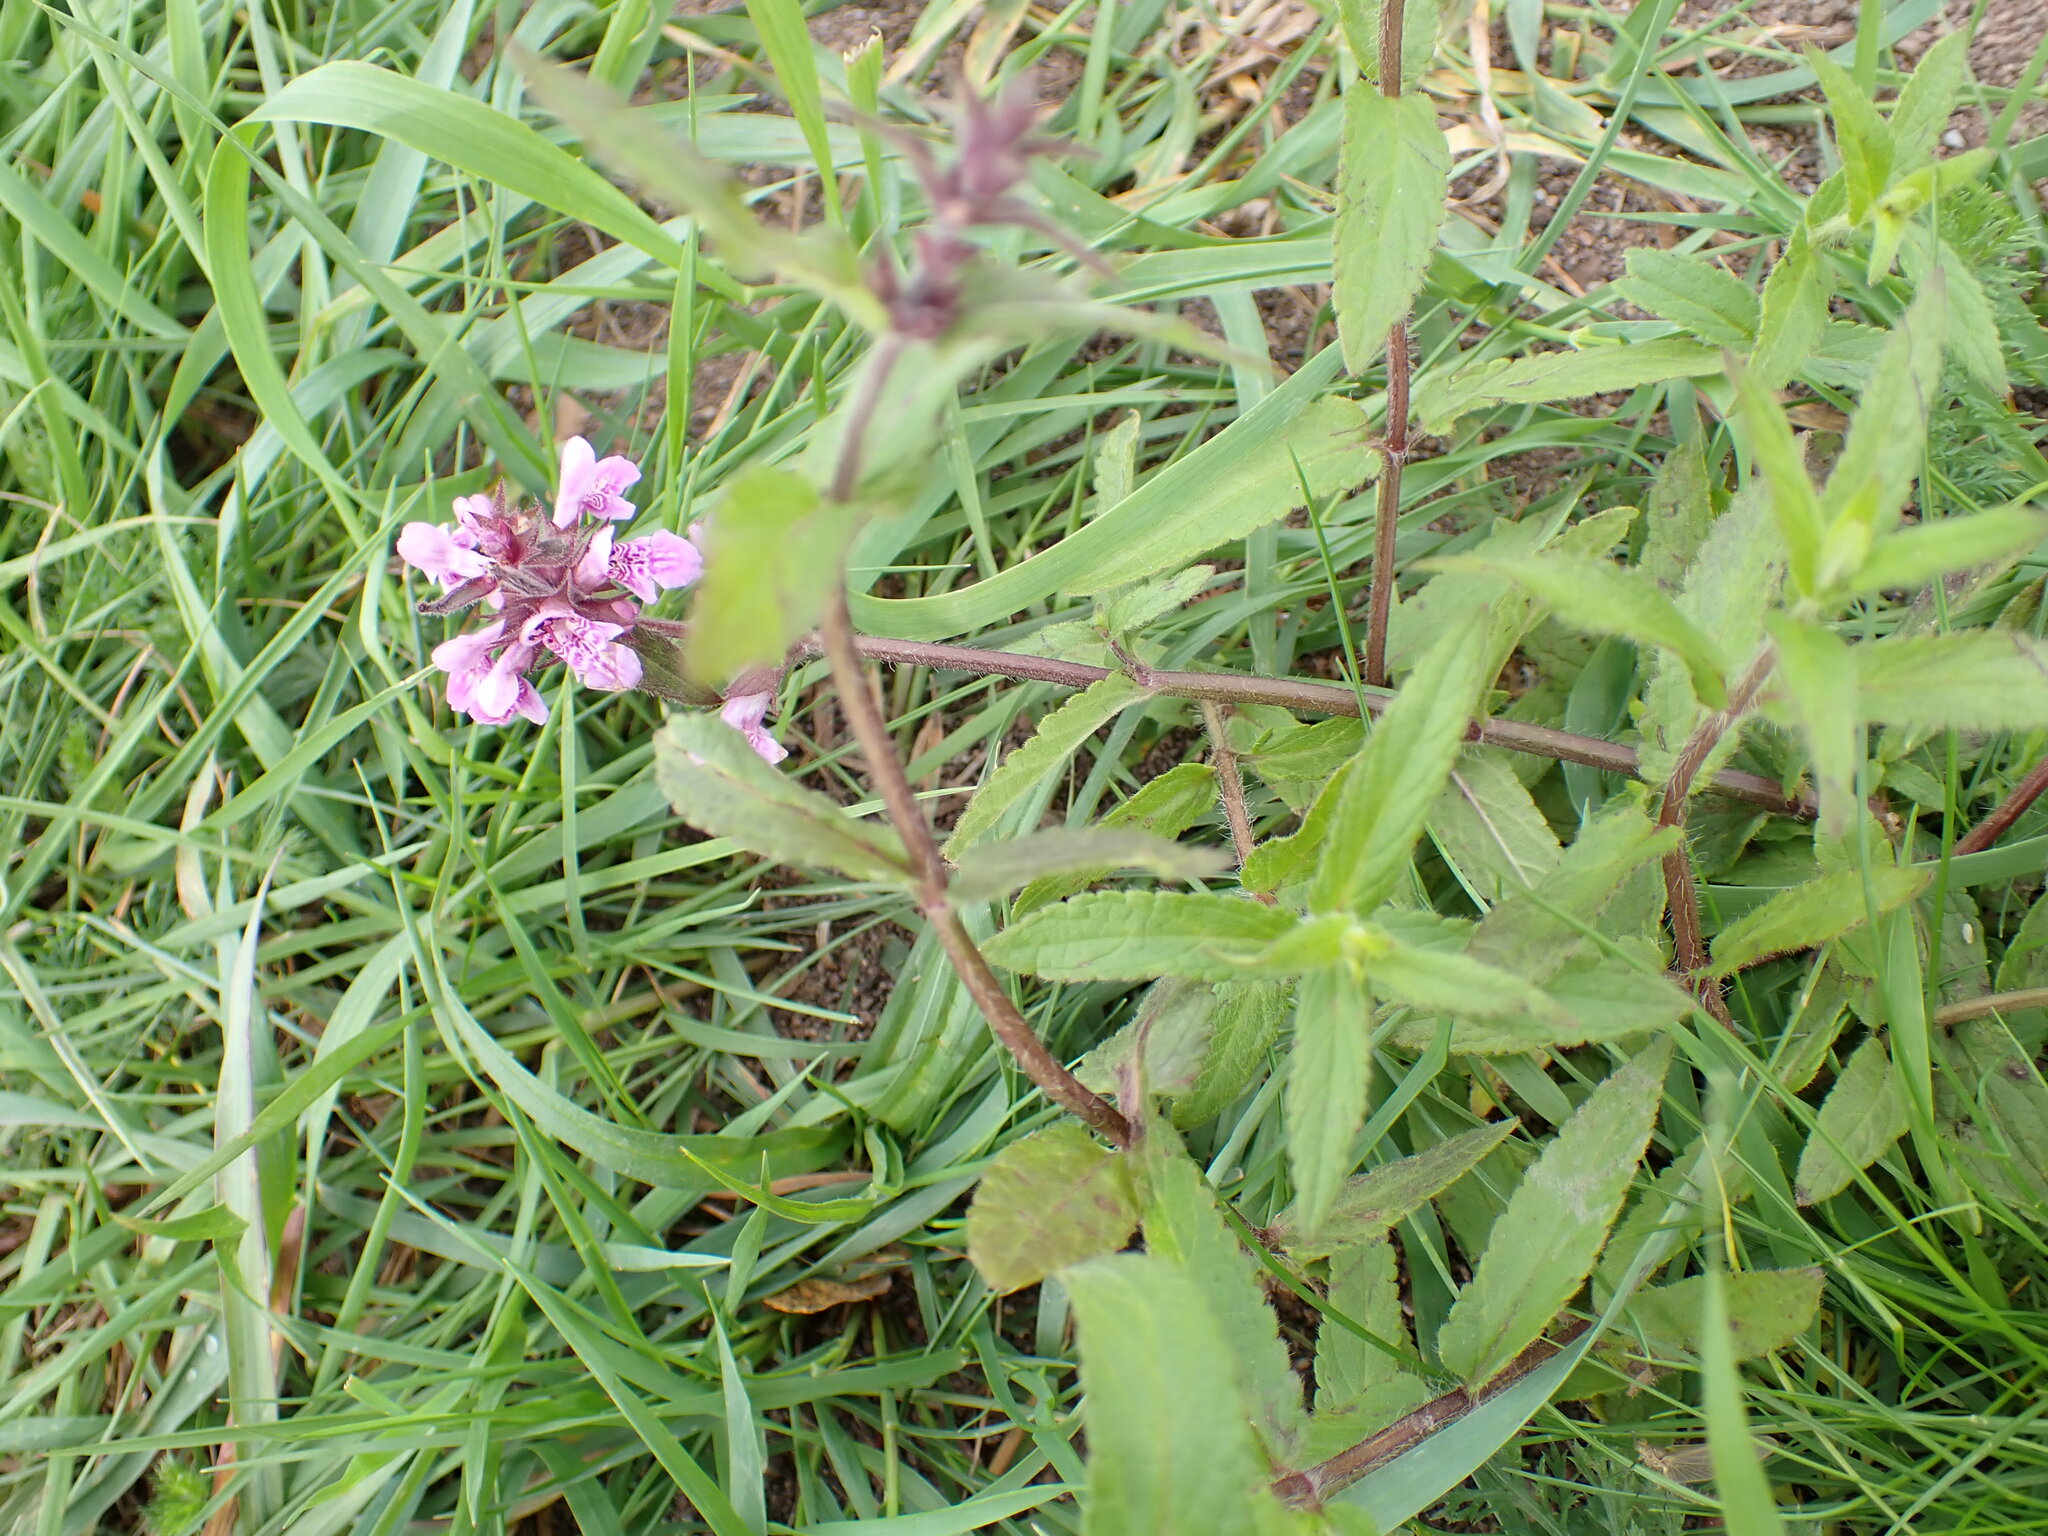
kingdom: Plantae
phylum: Tracheophyta
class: Magnoliopsida
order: Lamiales
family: Lamiaceae
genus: Stachys
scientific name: Stachys palustris
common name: Marsh woundwort
